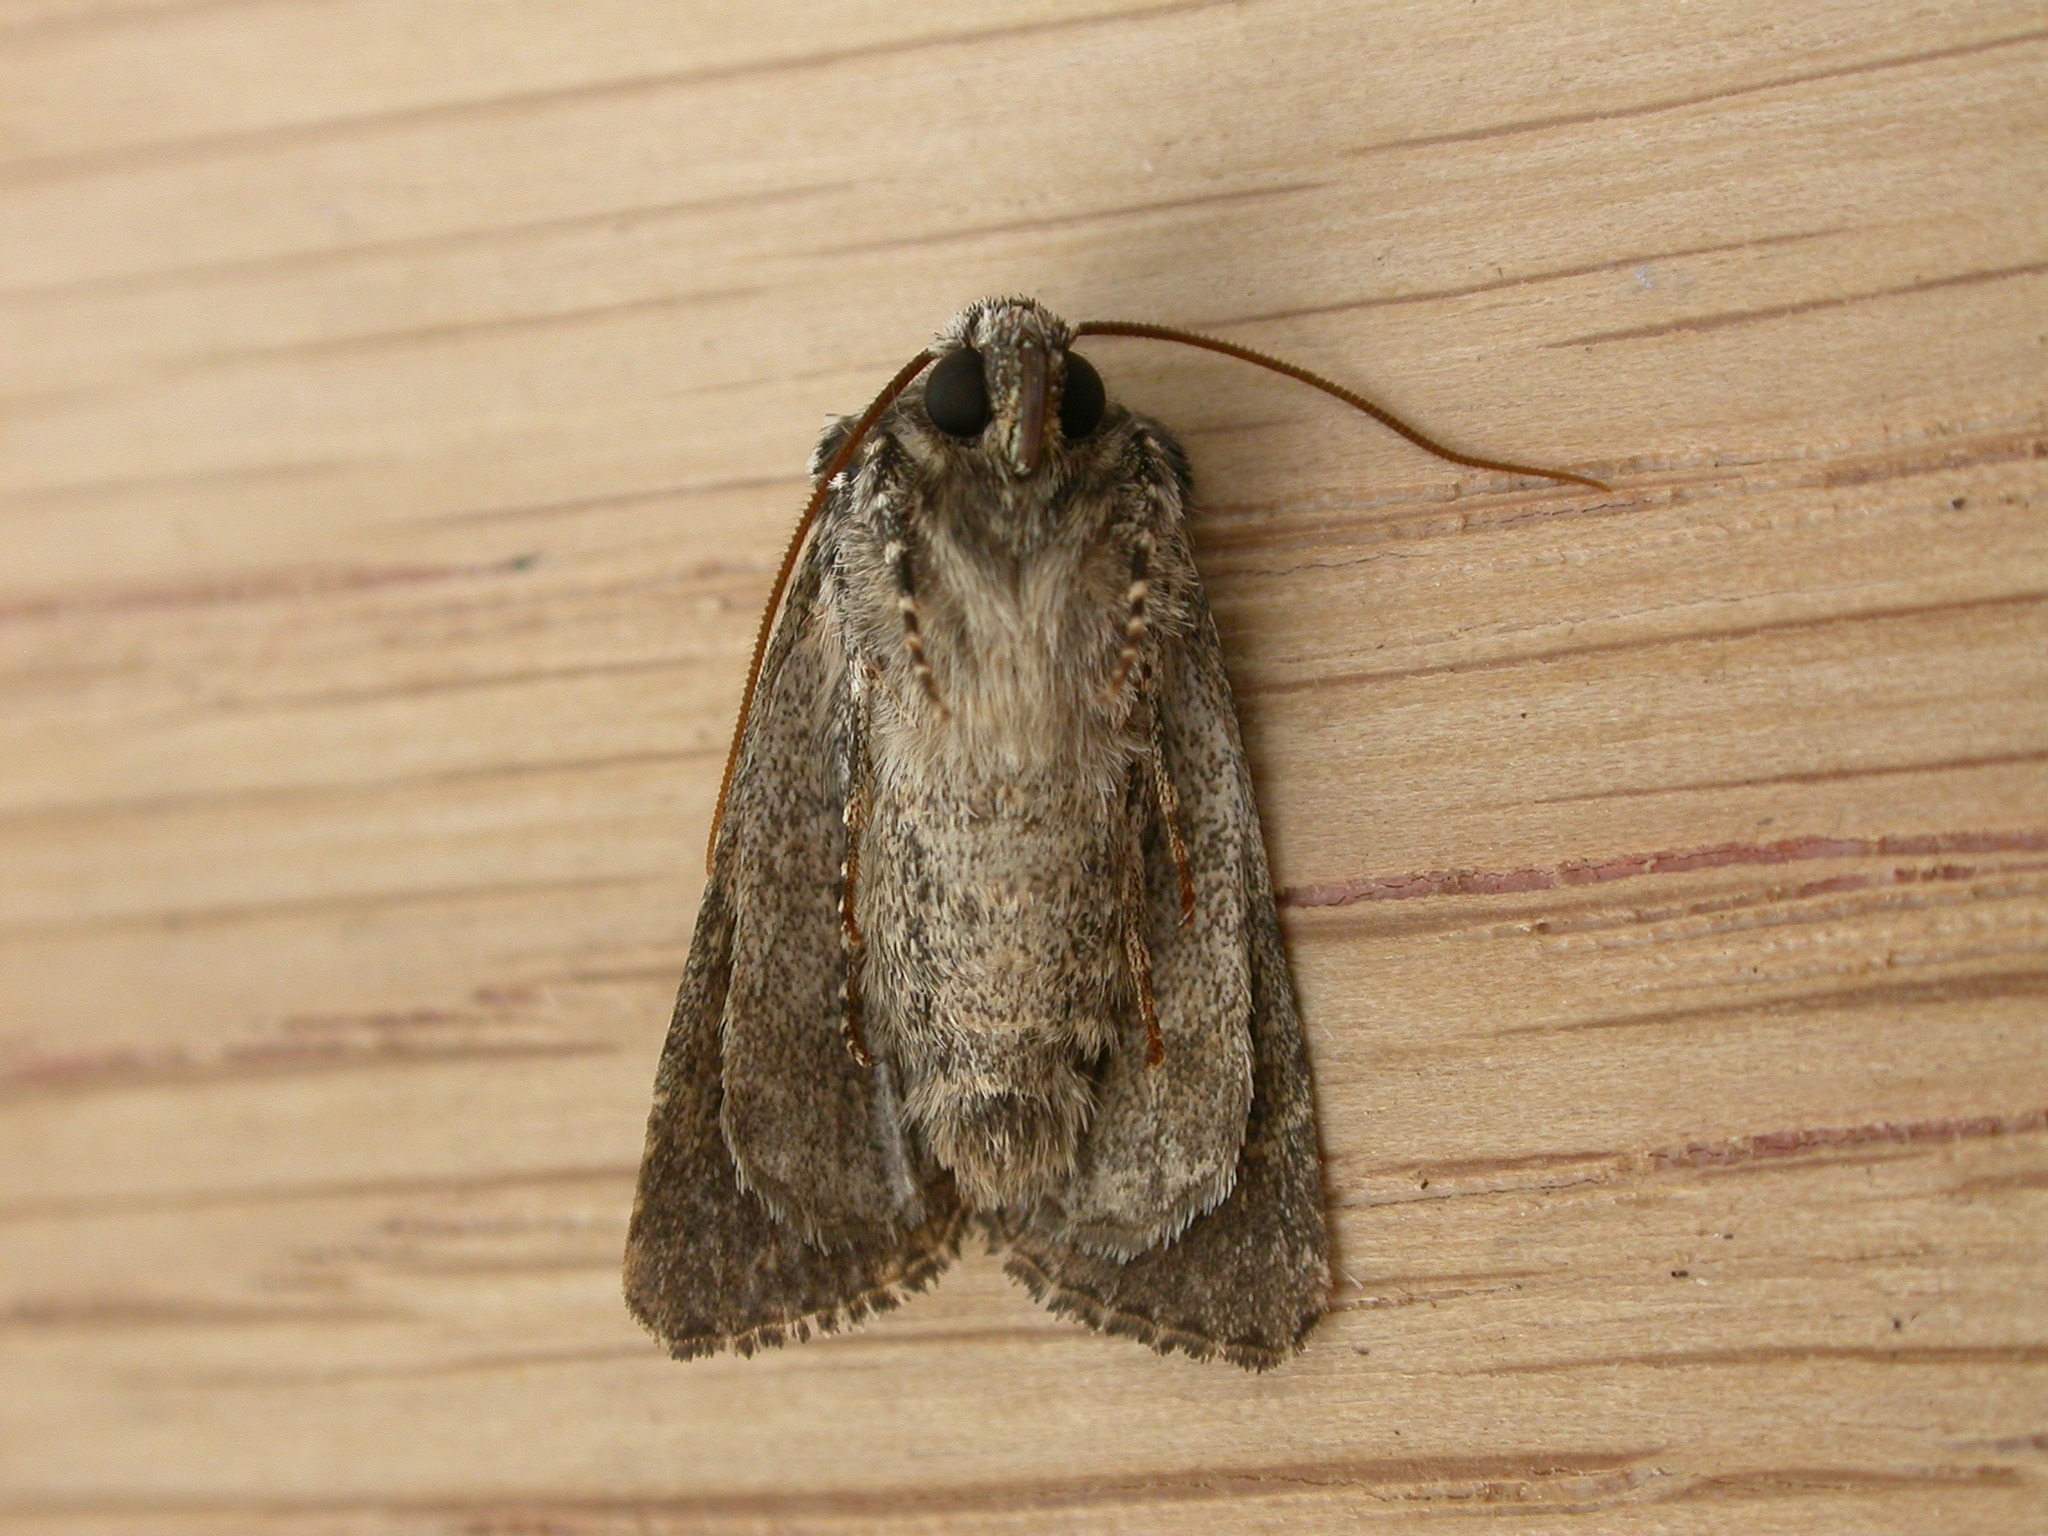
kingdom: Animalia
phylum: Arthropoda
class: Insecta
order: Lepidoptera
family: Noctuidae
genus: Hadena
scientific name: Hadena compta
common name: Varied coronet
